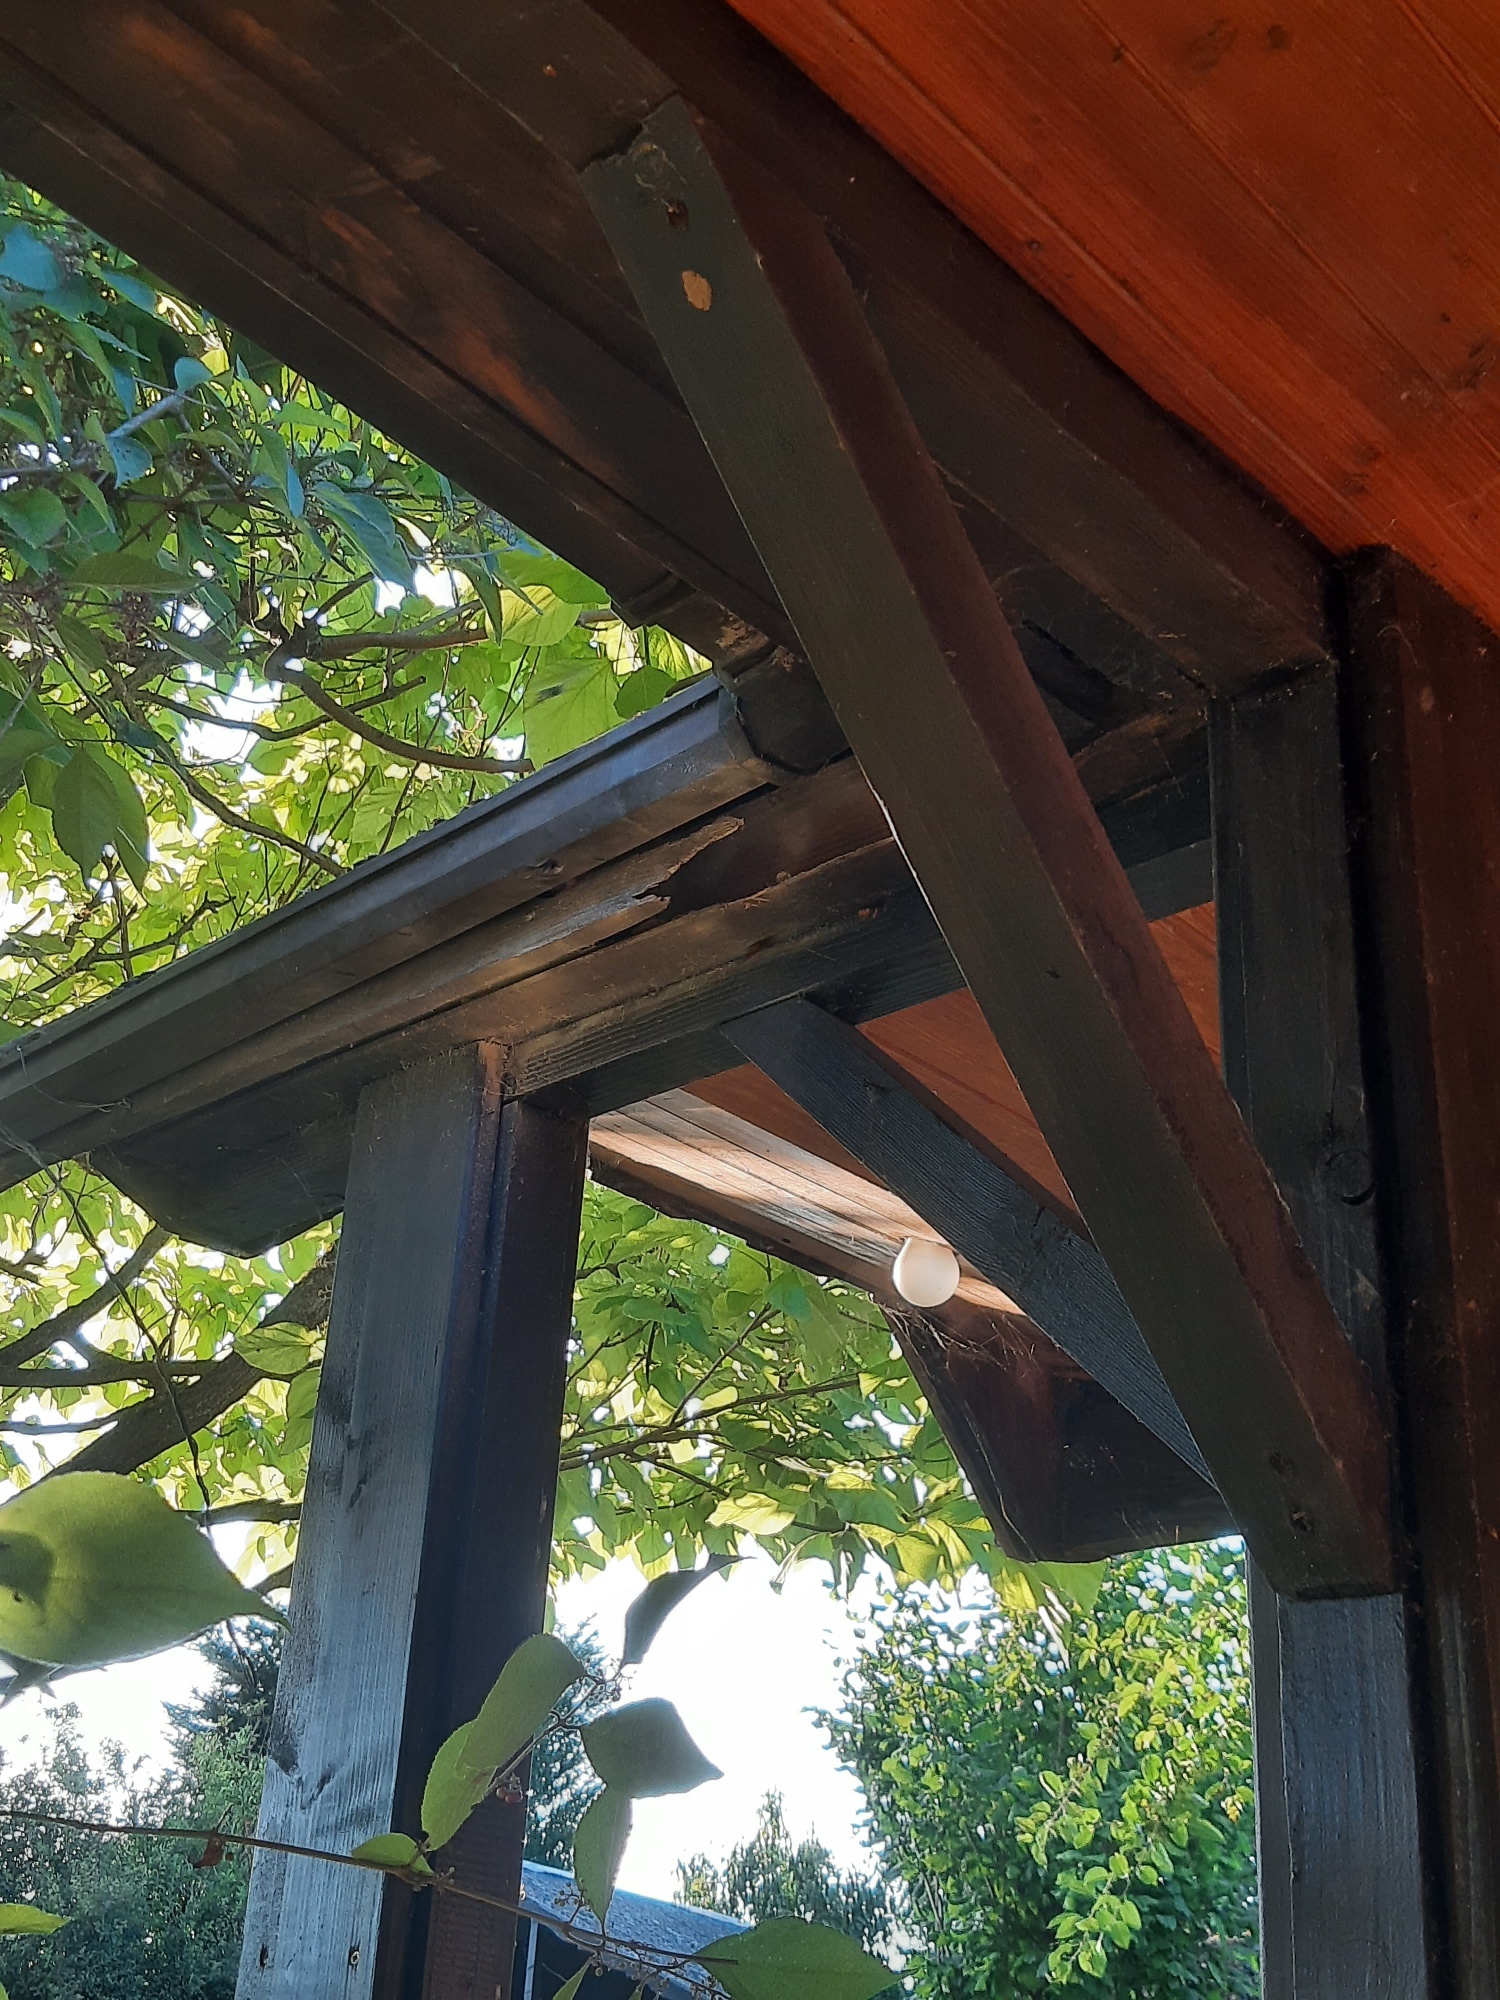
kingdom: Animalia
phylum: Arthropoda
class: Insecta
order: Hymenoptera
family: Vespidae
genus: Vespa
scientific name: Vespa velutina
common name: Asian hornet
